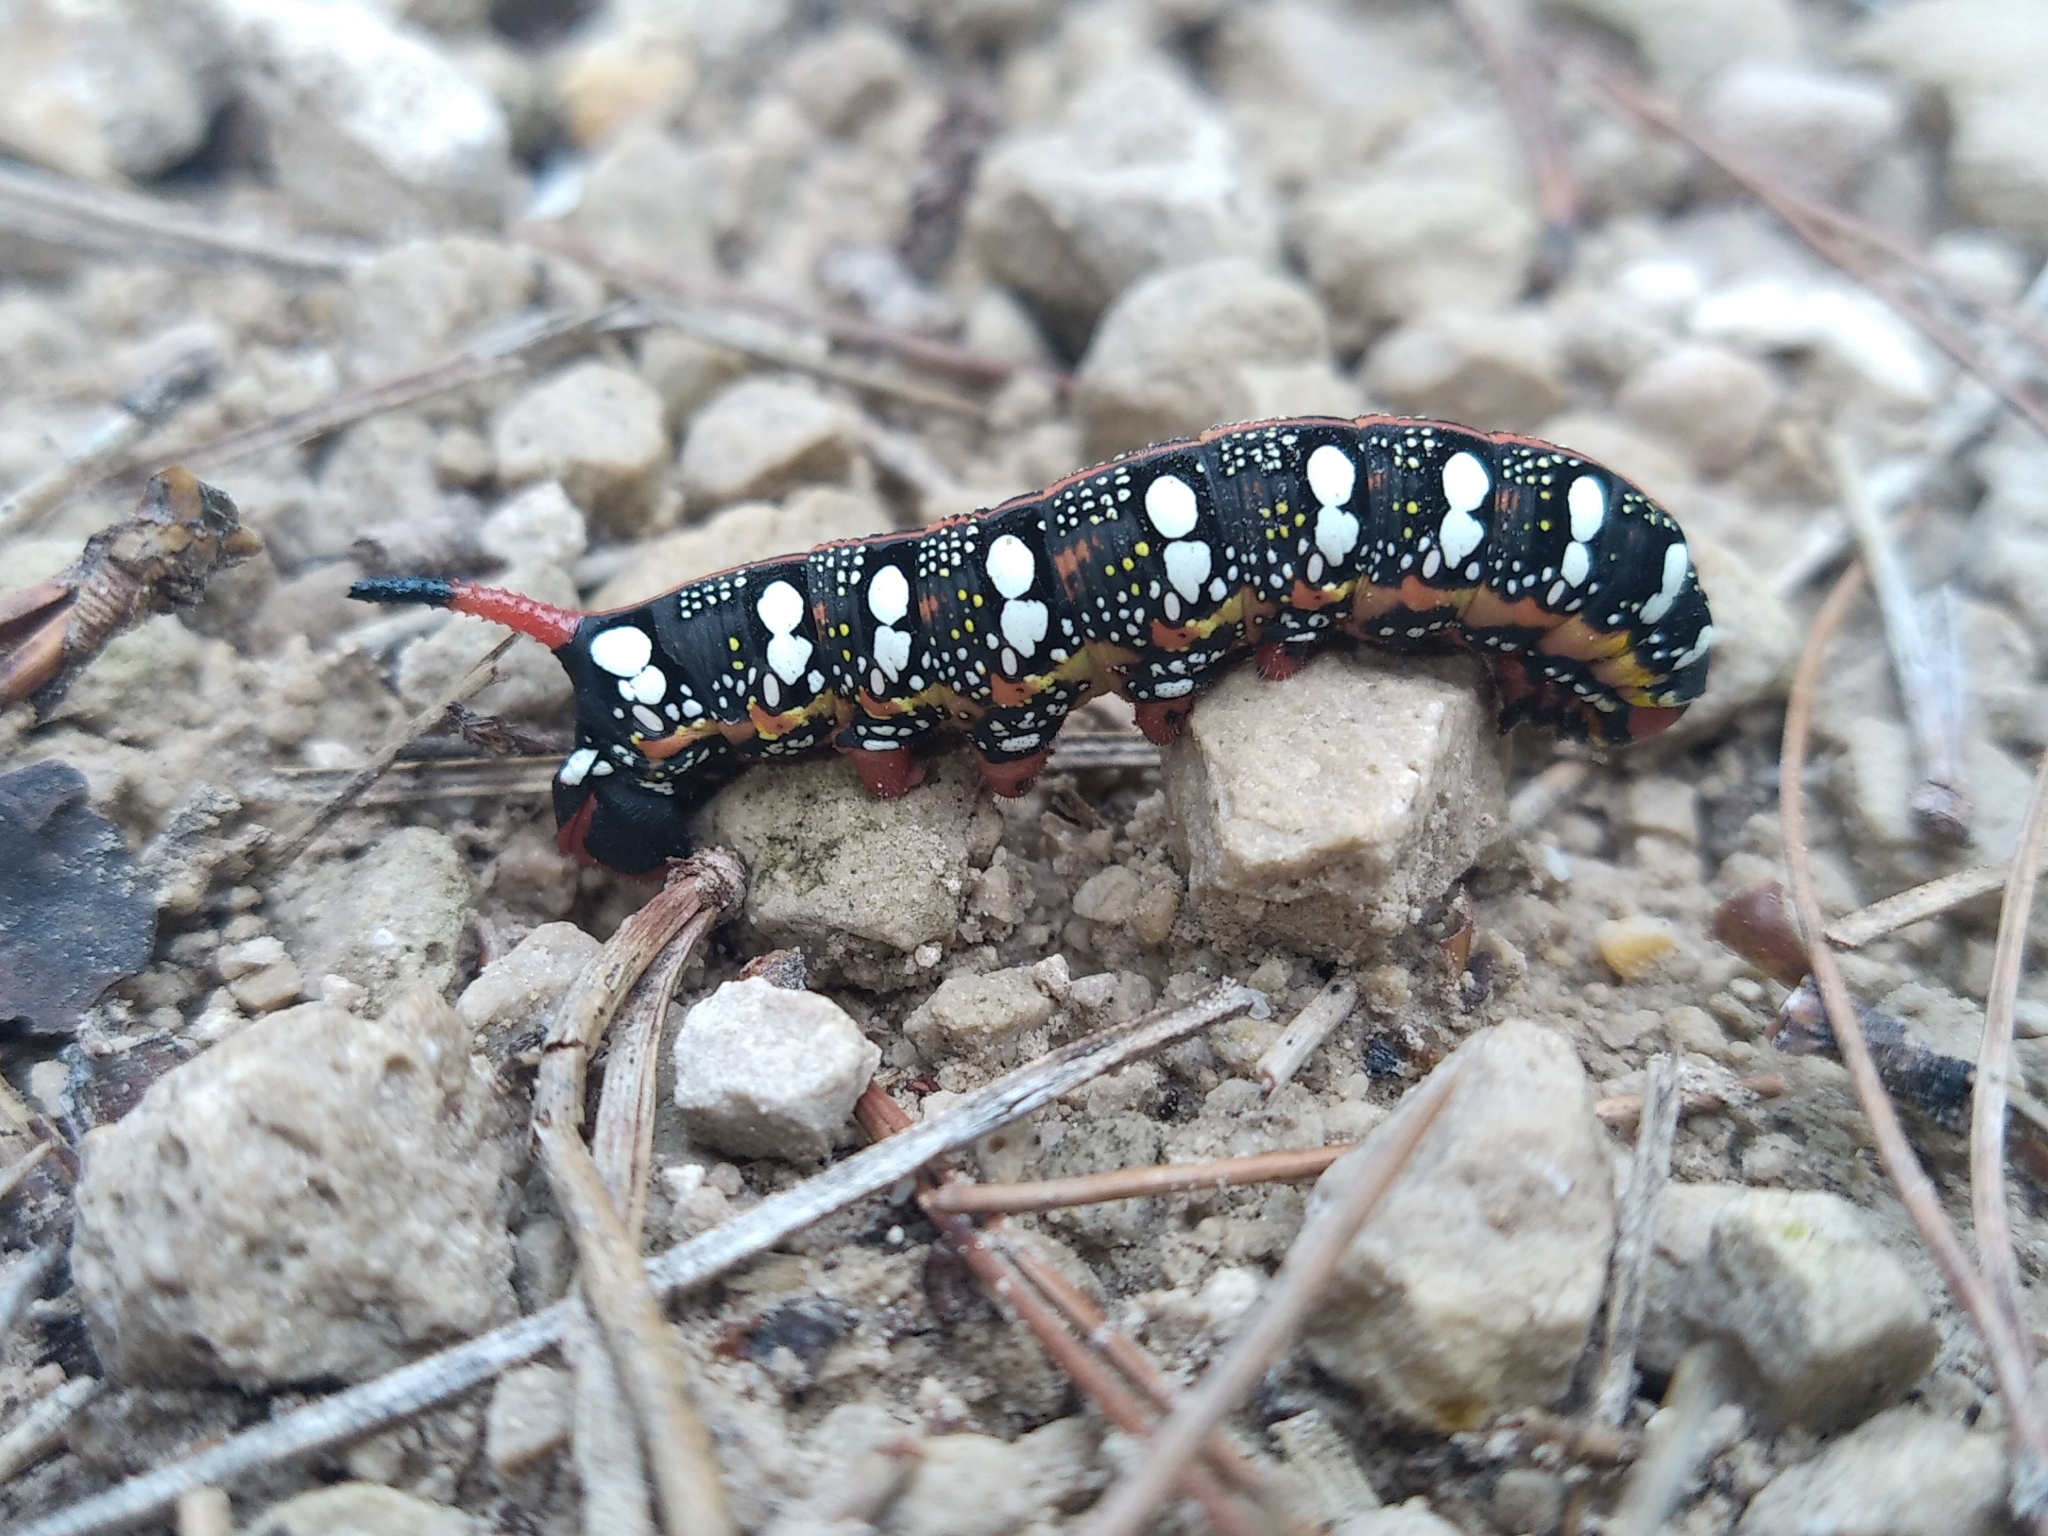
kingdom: Animalia
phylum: Arthropoda
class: Insecta
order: Lepidoptera
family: Sphingidae
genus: Hyles
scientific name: Hyles euphorbiae
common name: Spurge hawk-moth
